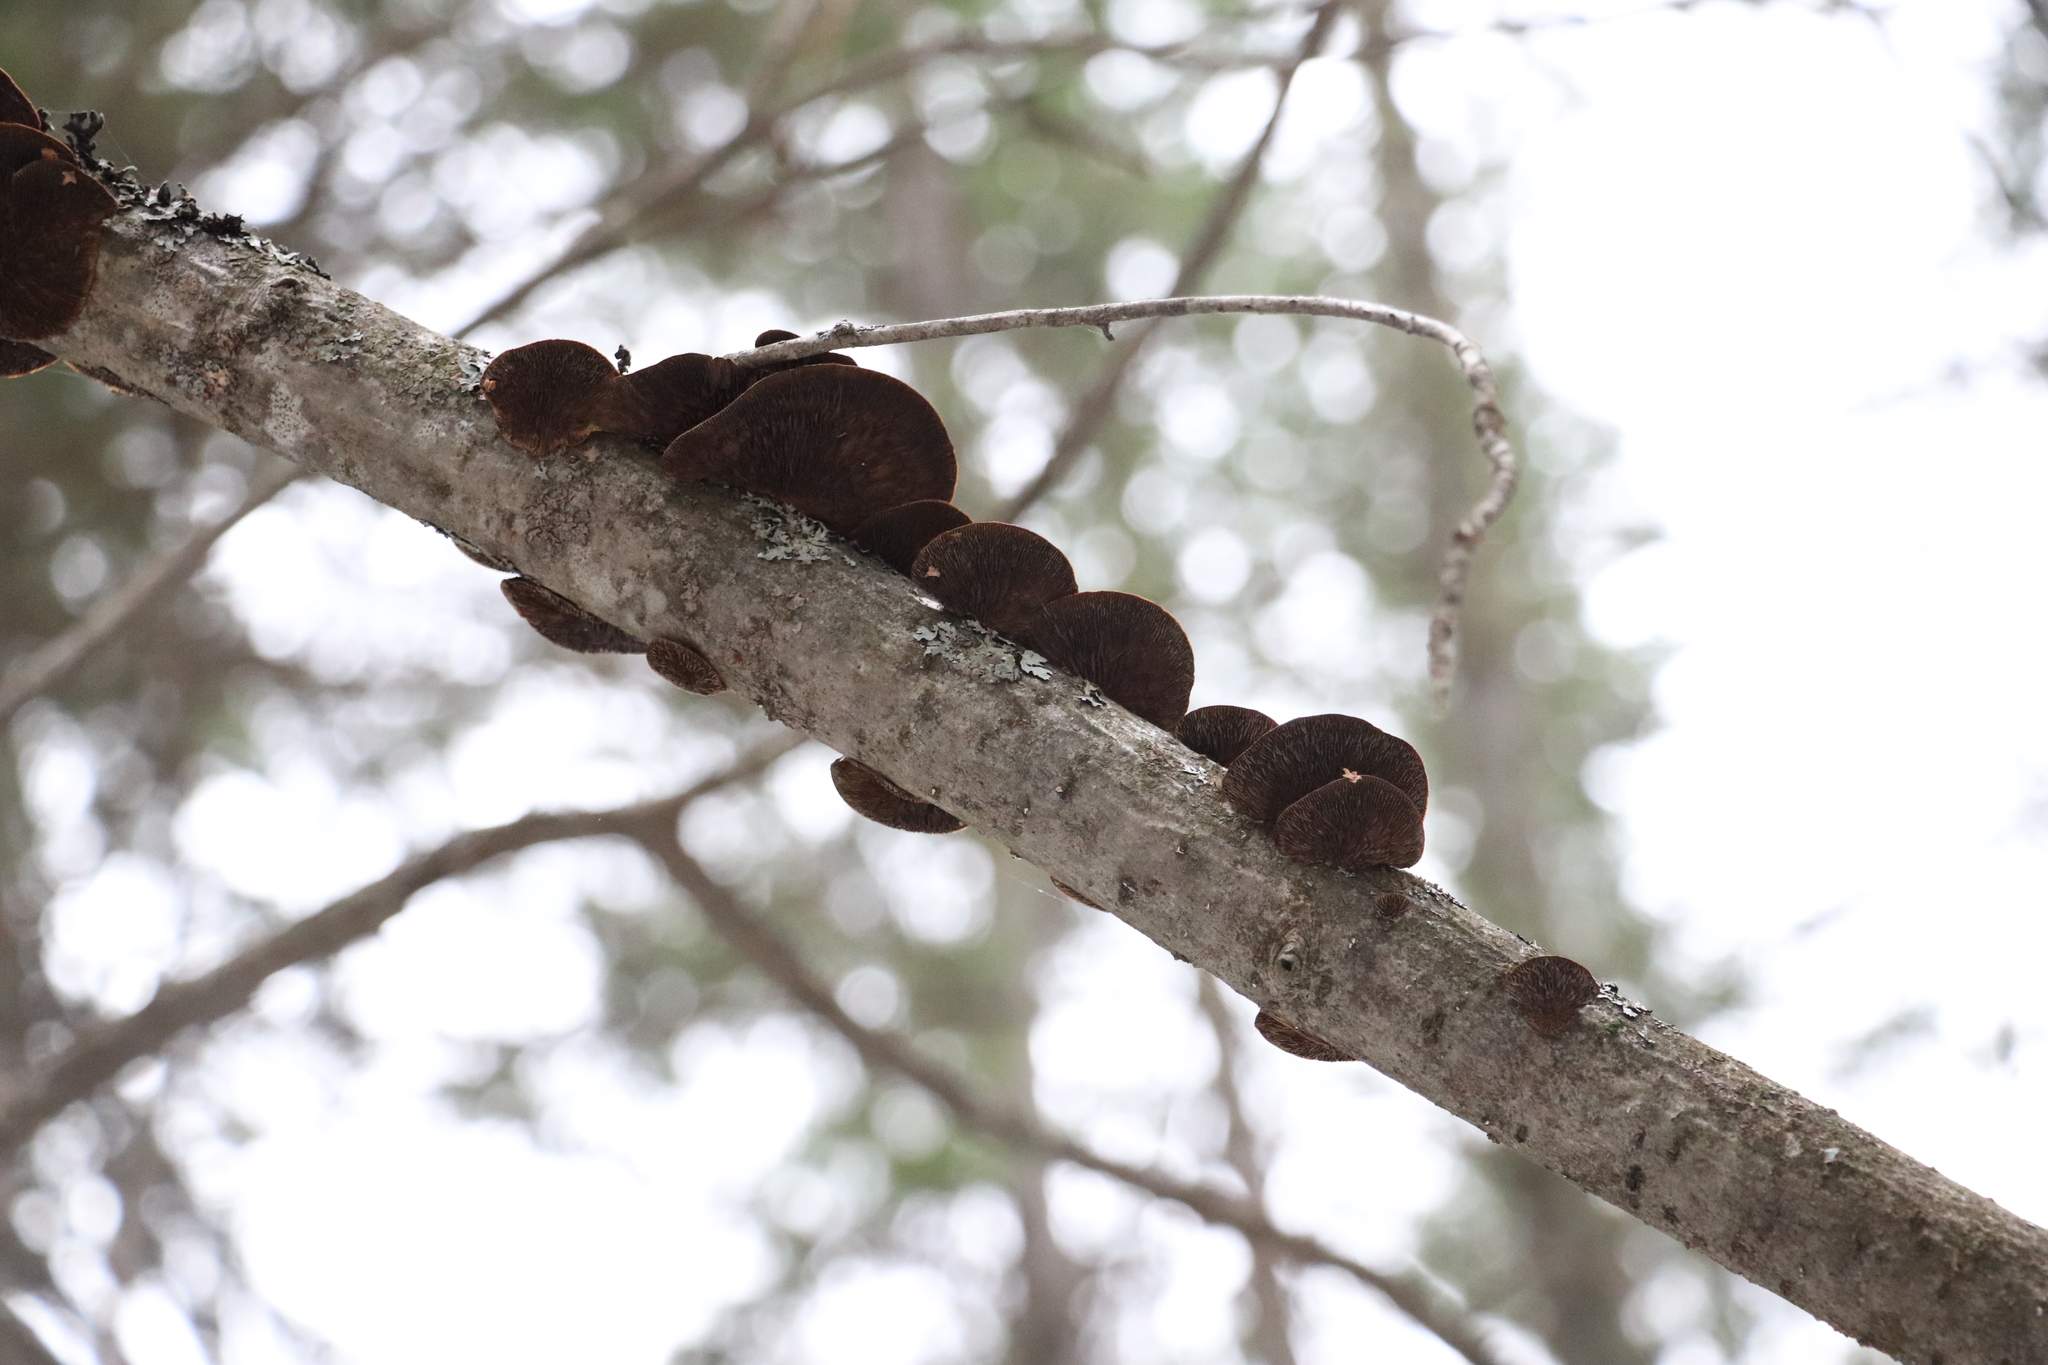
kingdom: Fungi
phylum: Basidiomycota
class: Agaricomycetes
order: Polyporales
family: Polyporaceae
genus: Daedaleopsis
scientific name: Daedaleopsis confragosa
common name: Blushing bracket
